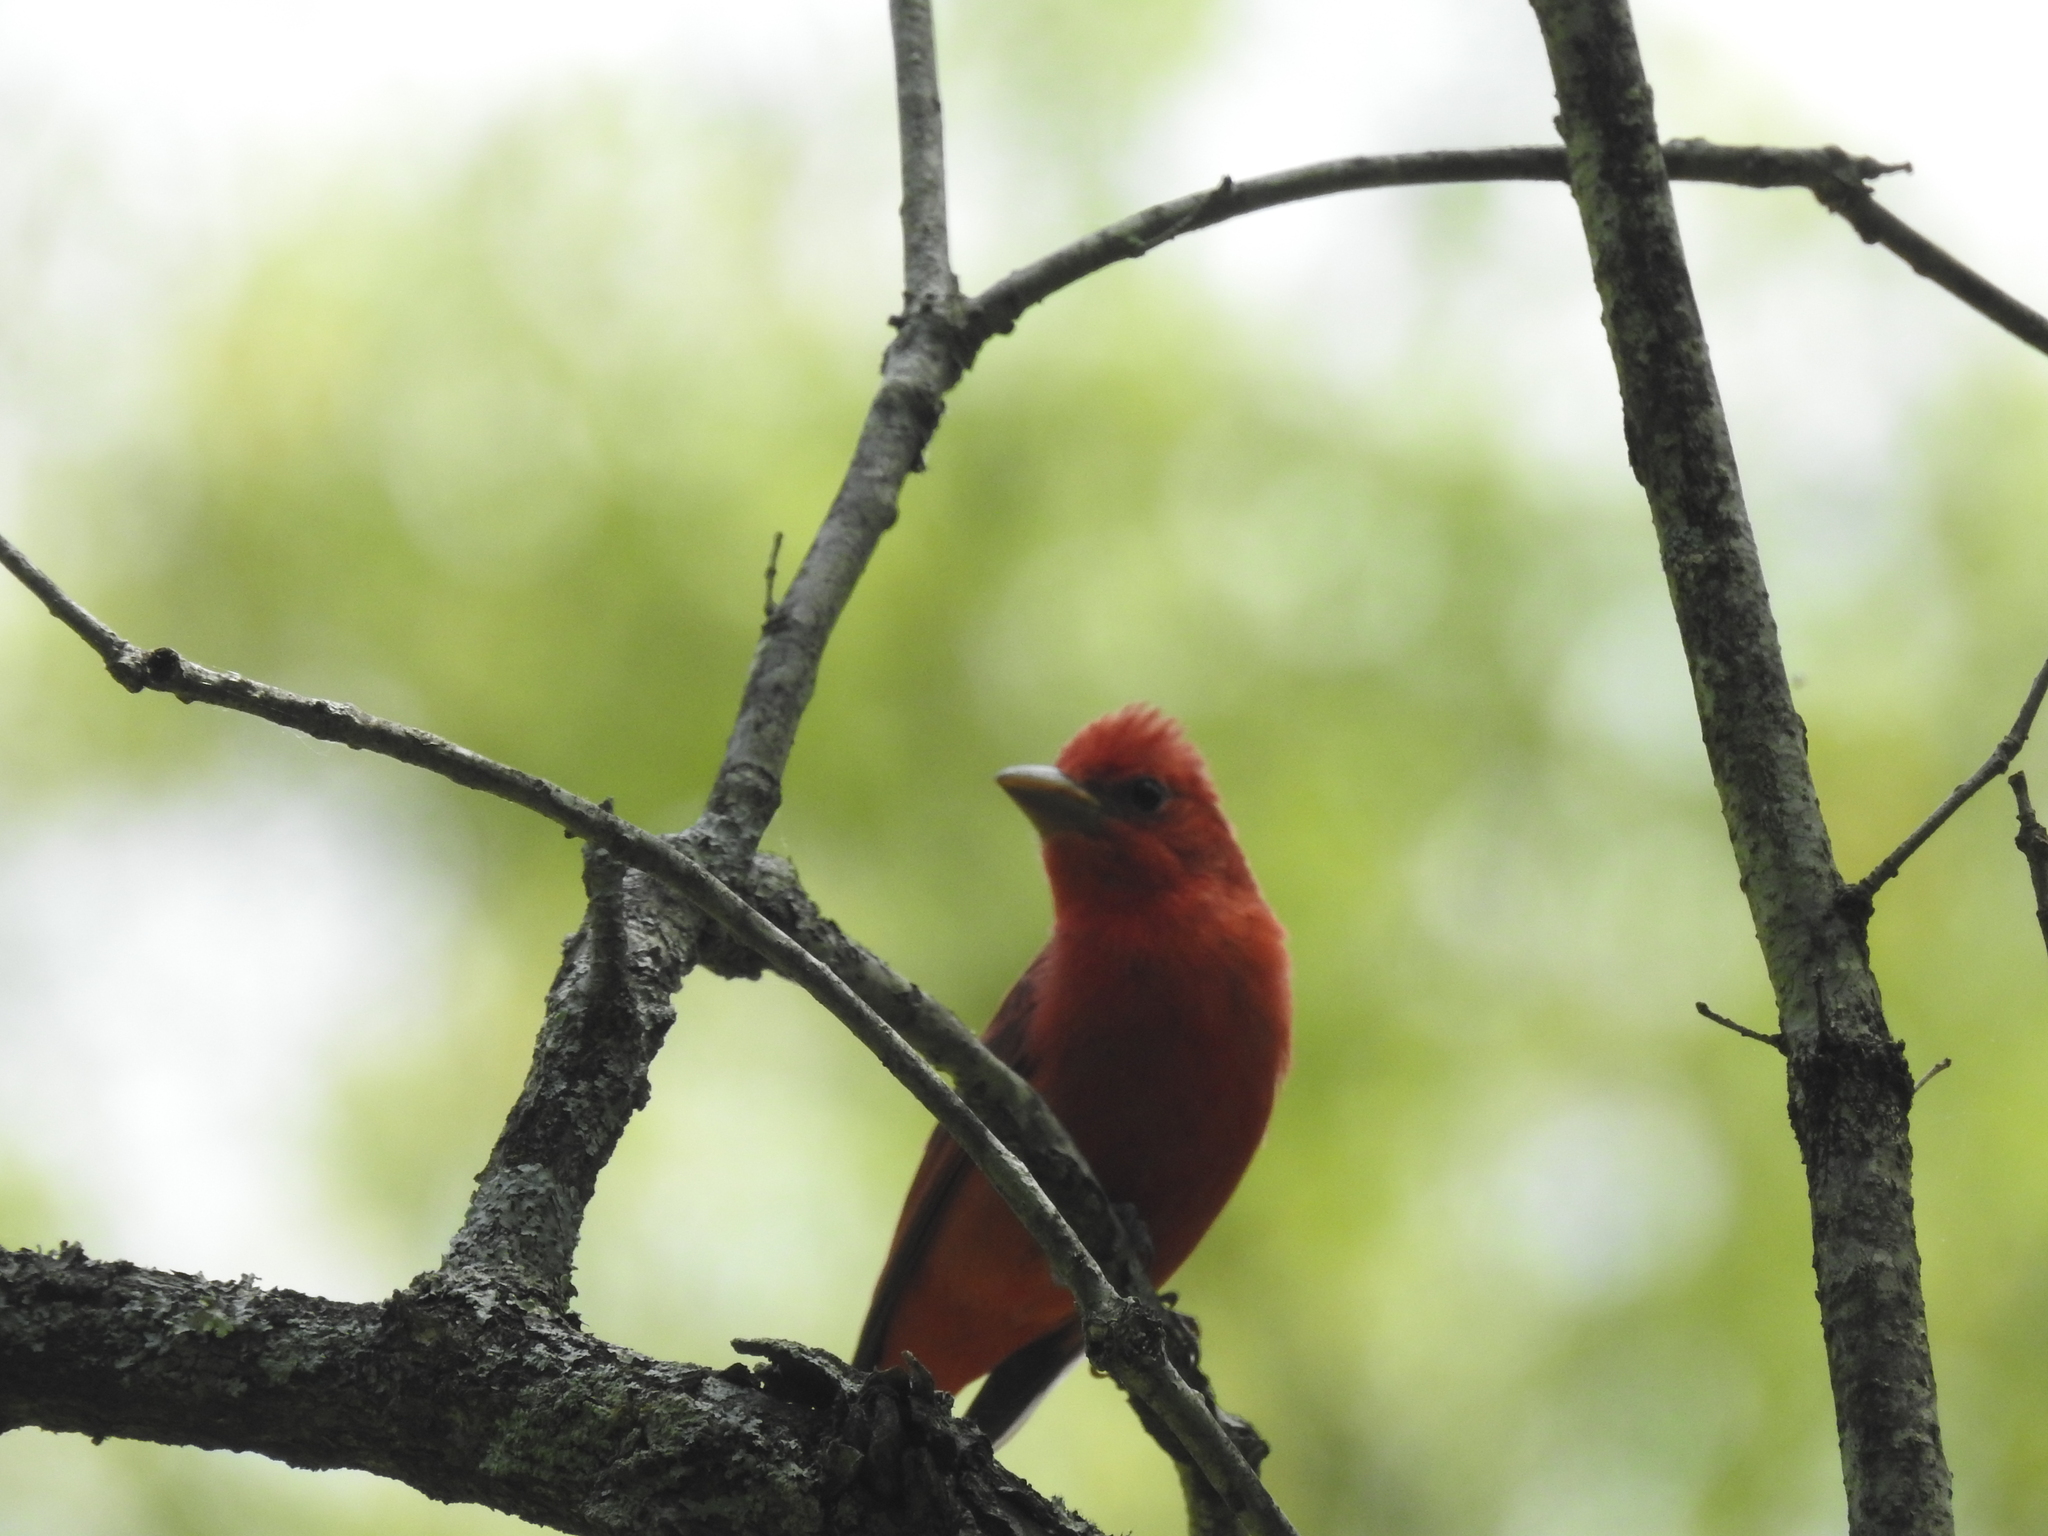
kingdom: Animalia
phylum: Chordata
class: Aves
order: Passeriformes
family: Cardinalidae
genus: Piranga
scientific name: Piranga rubra
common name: Summer tanager
